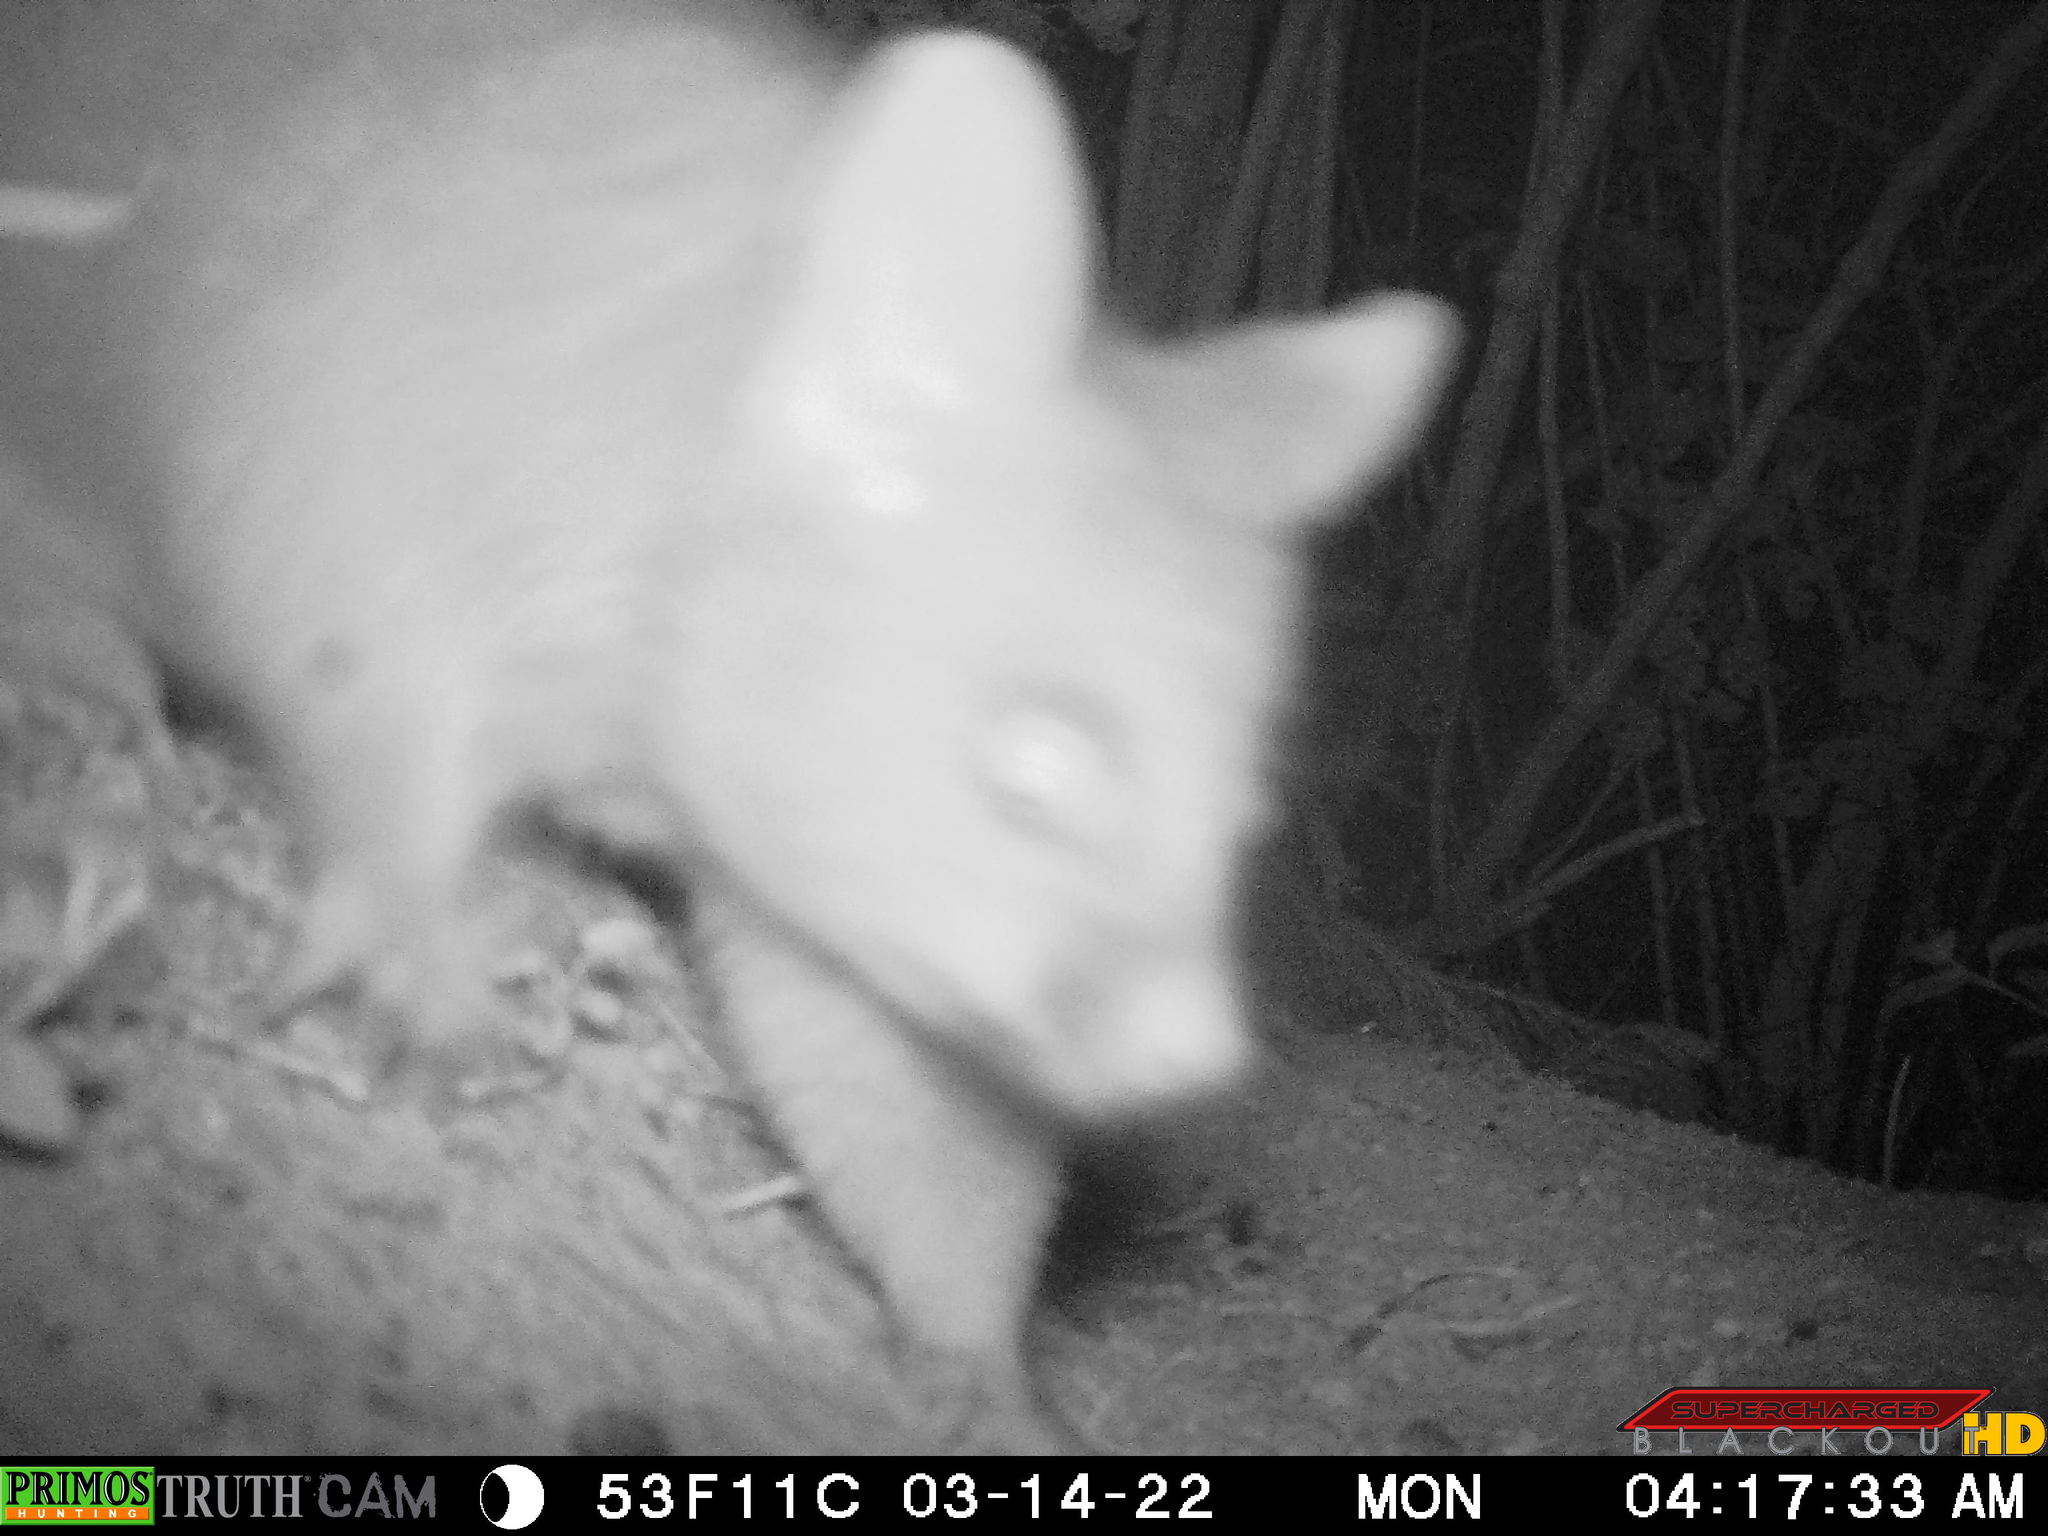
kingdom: Animalia
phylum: Chordata
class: Mammalia
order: Diprotodontia
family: Phalangeridae
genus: Trichosurus
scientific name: Trichosurus vulpecula
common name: Common brushtail
